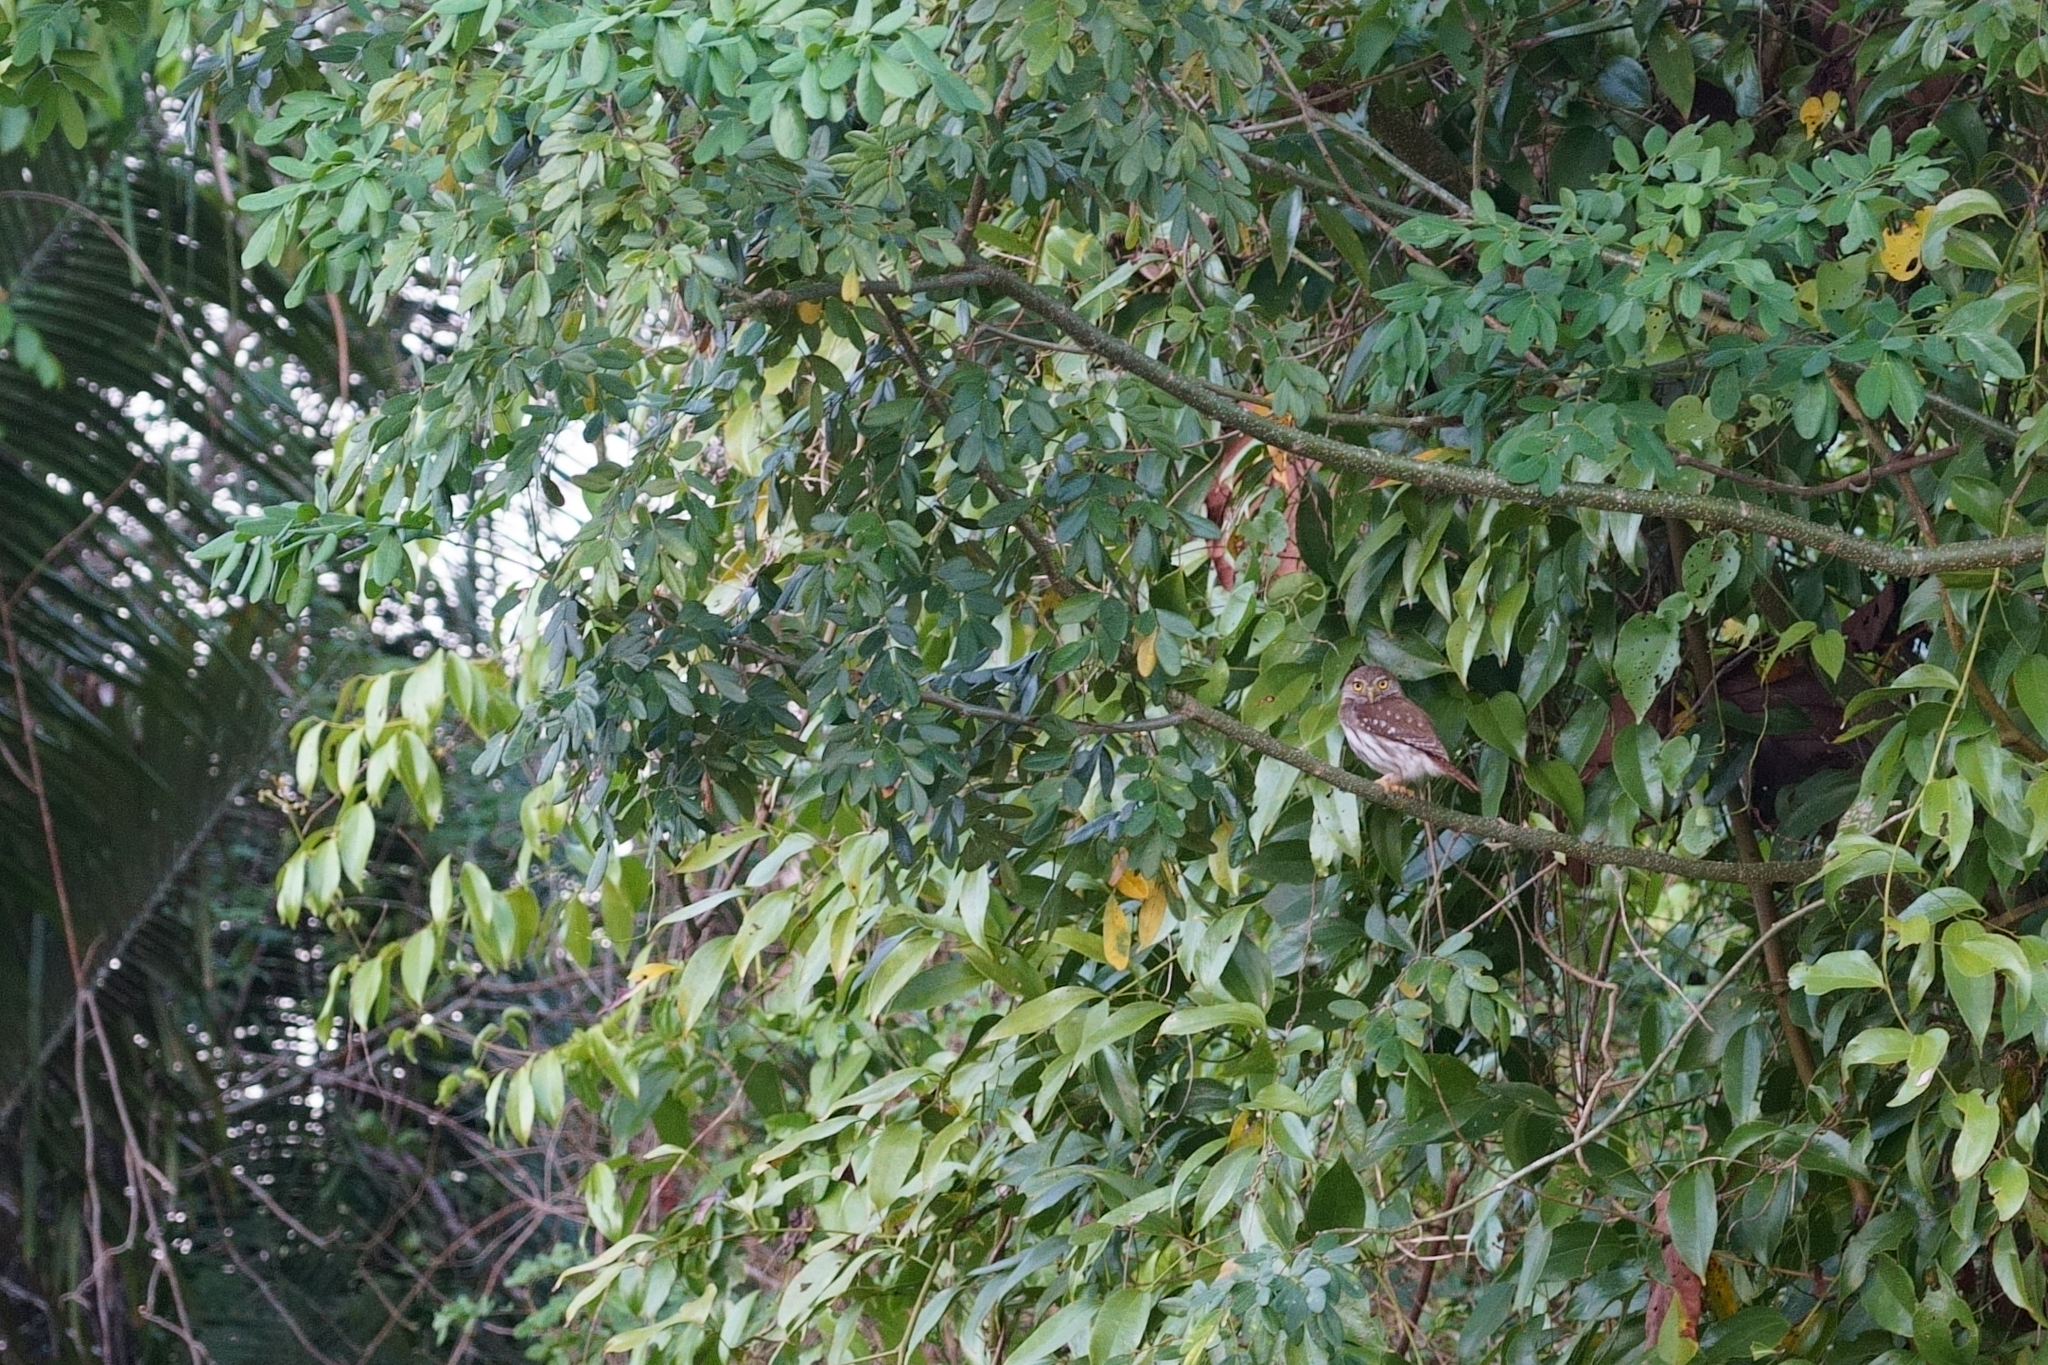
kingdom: Animalia
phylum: Chordata
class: Aves
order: Strigiformes
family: Strigidae
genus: Glaucidium
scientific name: Glaucidium brasilianum
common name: Ferruginous pygmy-owl
